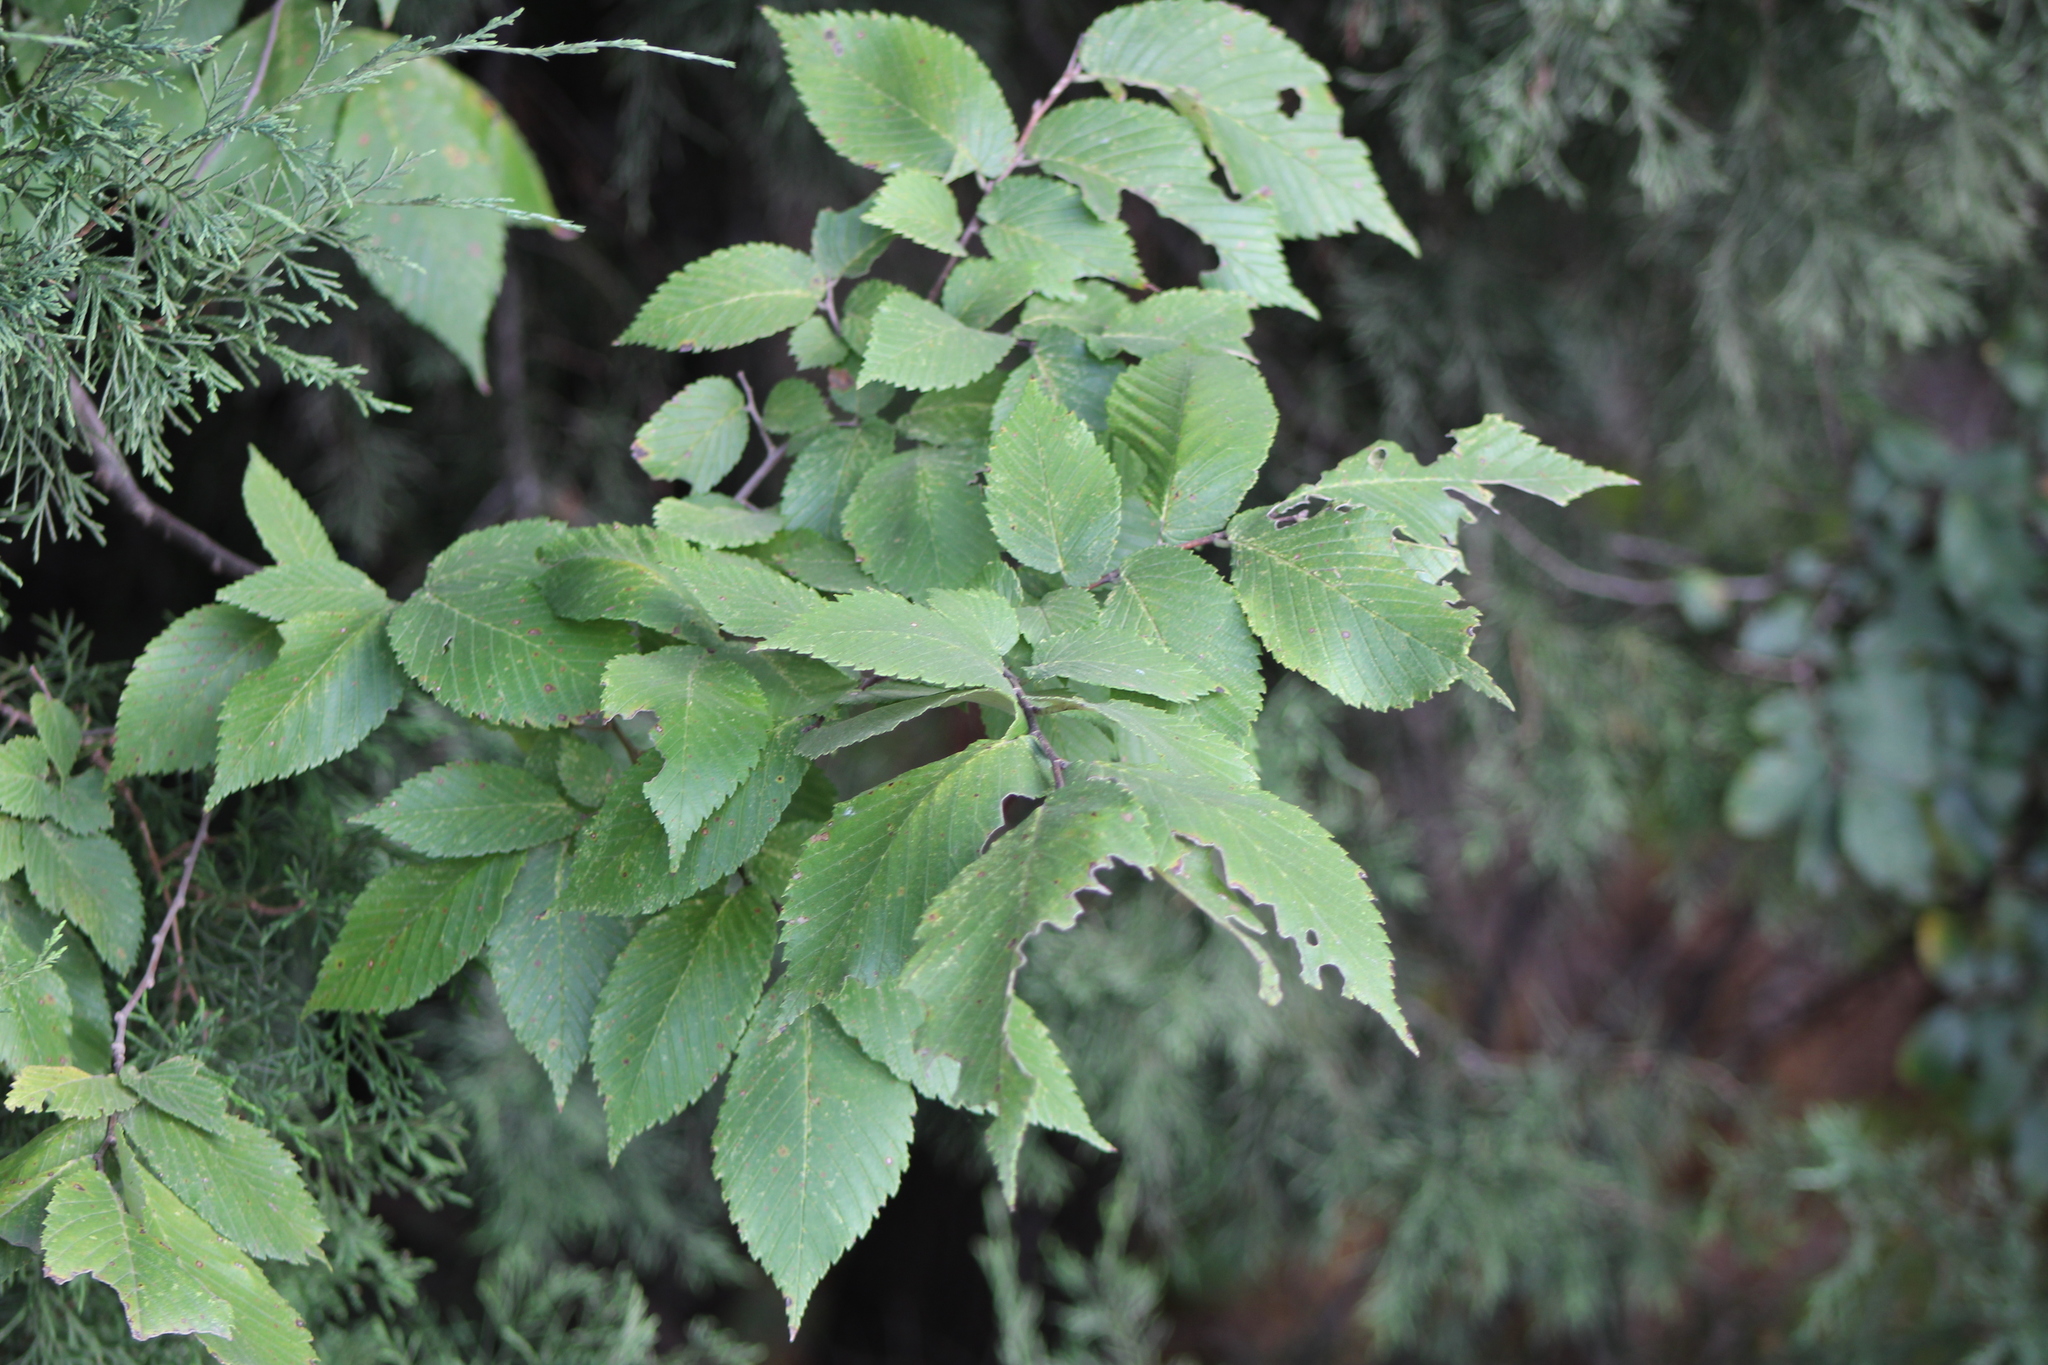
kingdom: Plantae
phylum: Tracheophyta
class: Magnoliopsida
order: Rosales
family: Ulmaceae
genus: Ulmus
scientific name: Ulmus americana
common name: American elm
